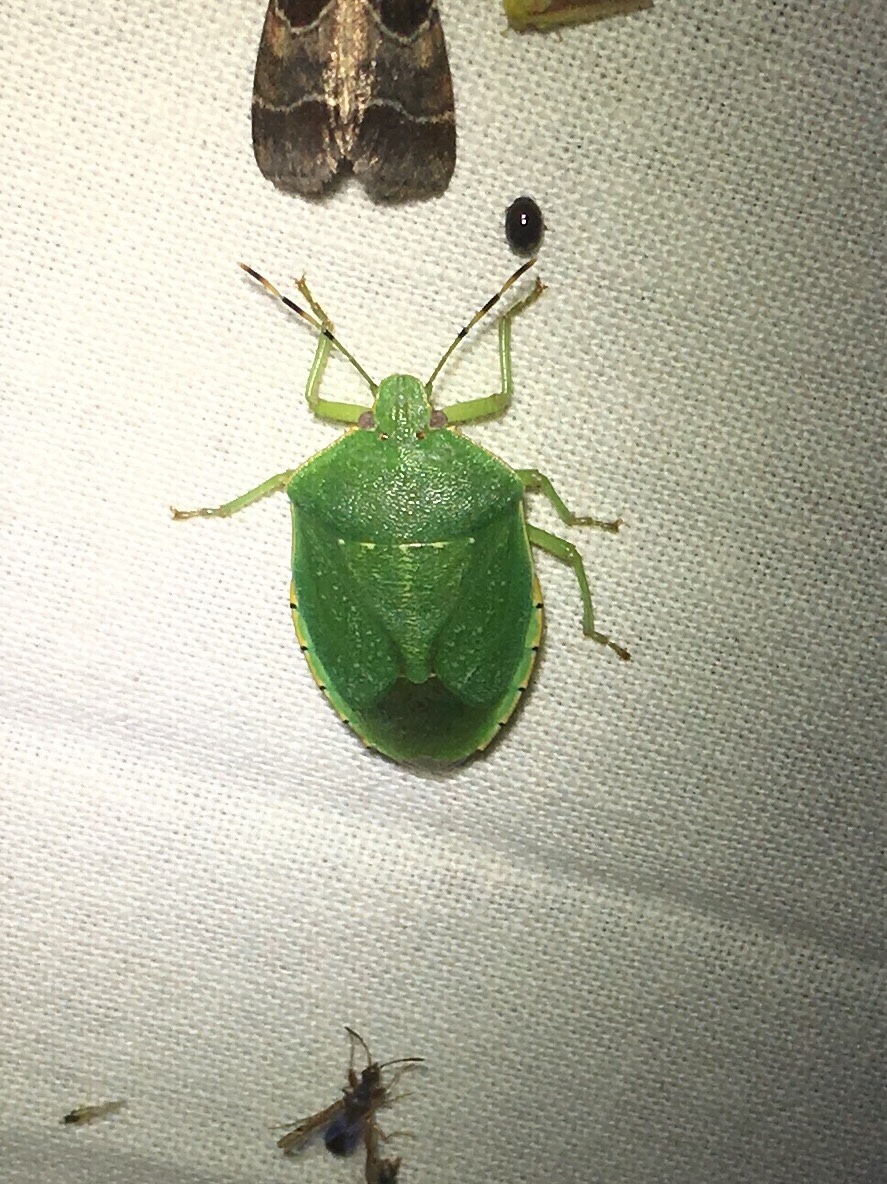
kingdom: Animalia
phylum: Arthropoda
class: Insecta
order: Hemiptera
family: Pentatomidae
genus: Chinavia
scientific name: Chinavia hilaris
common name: Green stink bug
